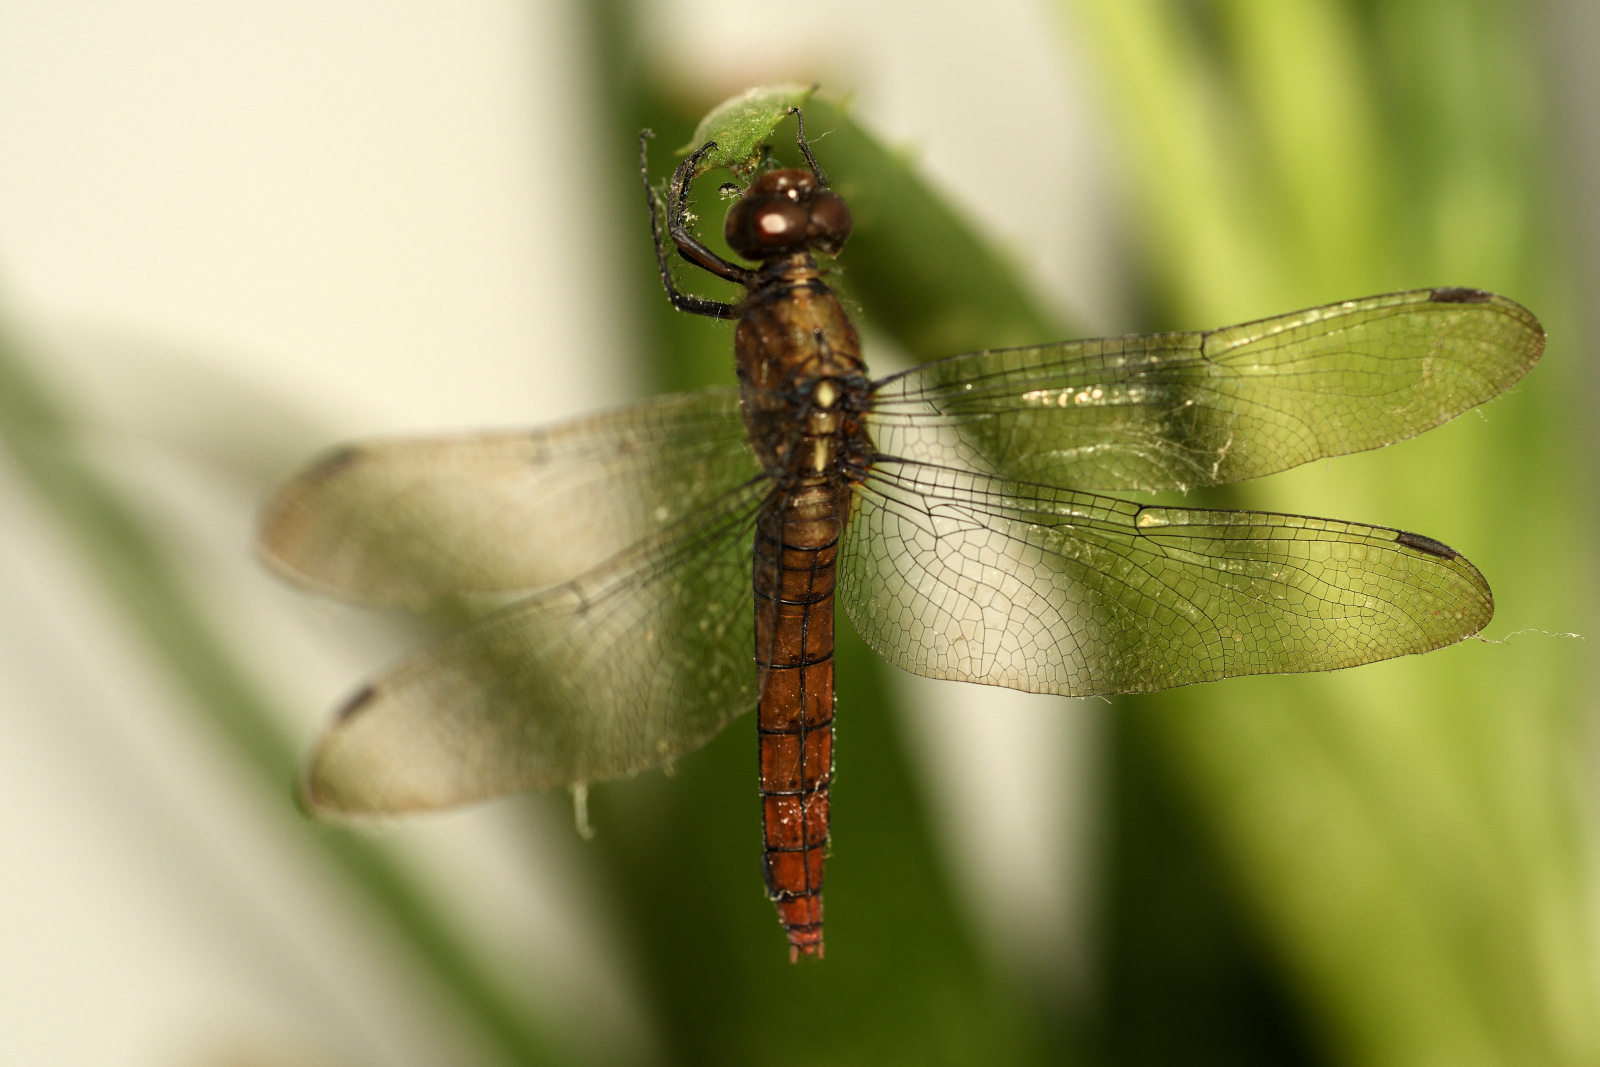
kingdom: Animalia
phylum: Arthropoda
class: Insecta
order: Odonata
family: Libellulidae
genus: Orthetrum
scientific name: Orthetrum chrysis
